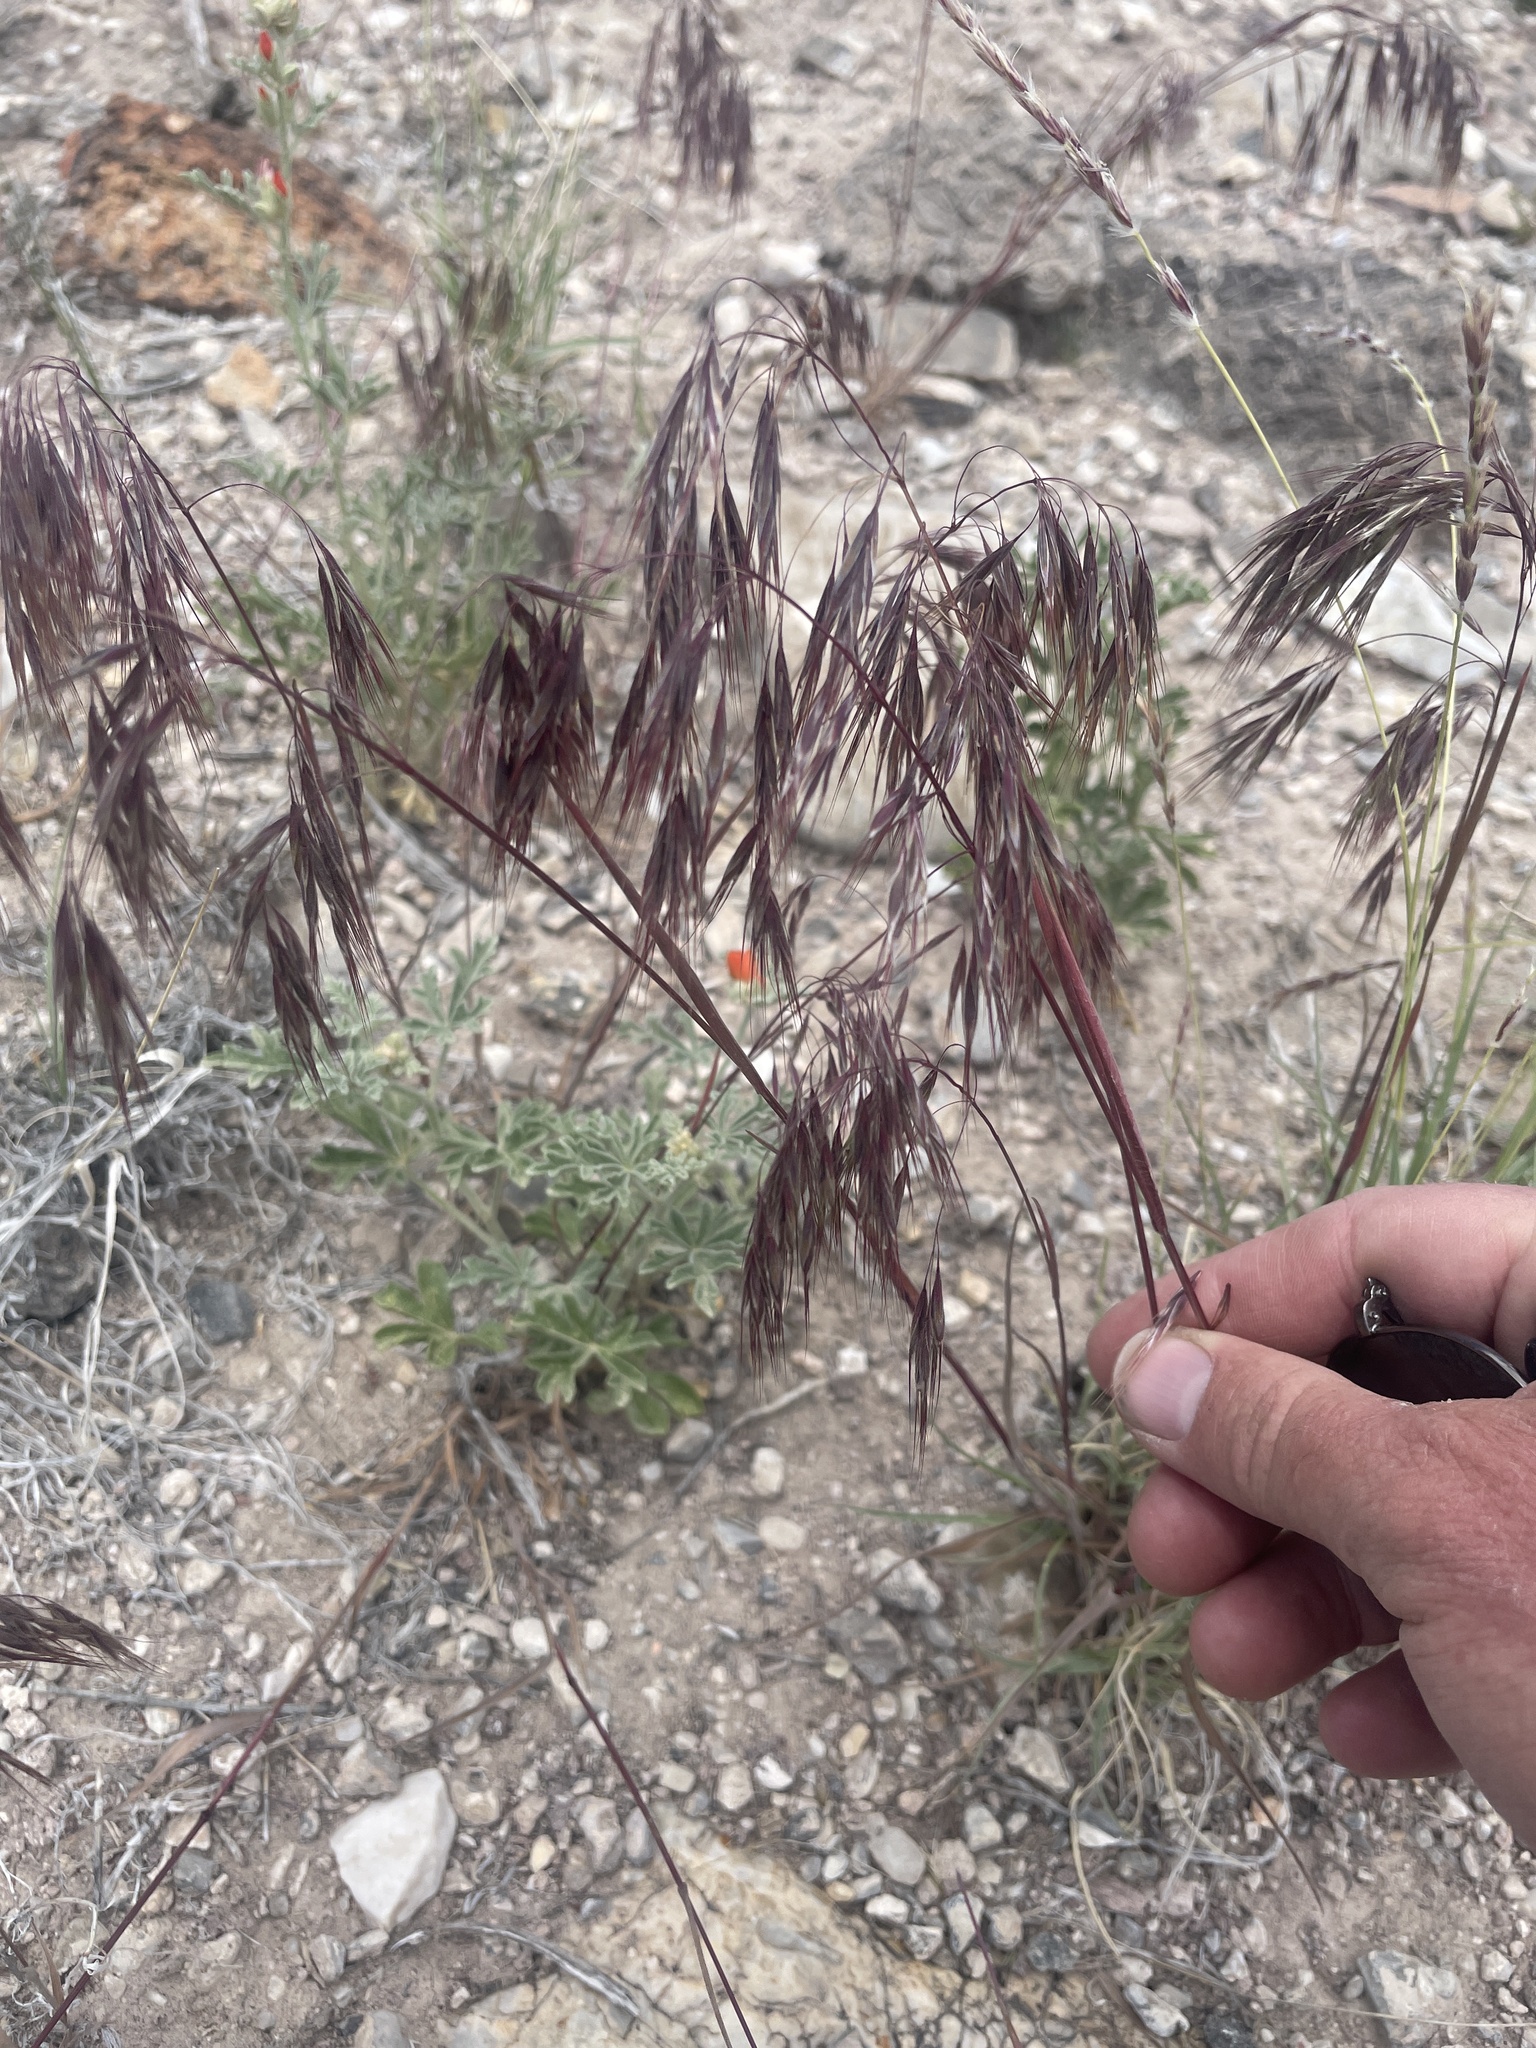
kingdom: Plantae
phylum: Tracheophyta
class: Liliopsida
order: Poales
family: Poaceae
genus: Bromus
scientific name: Bromus tectorum
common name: Cheatgrass
